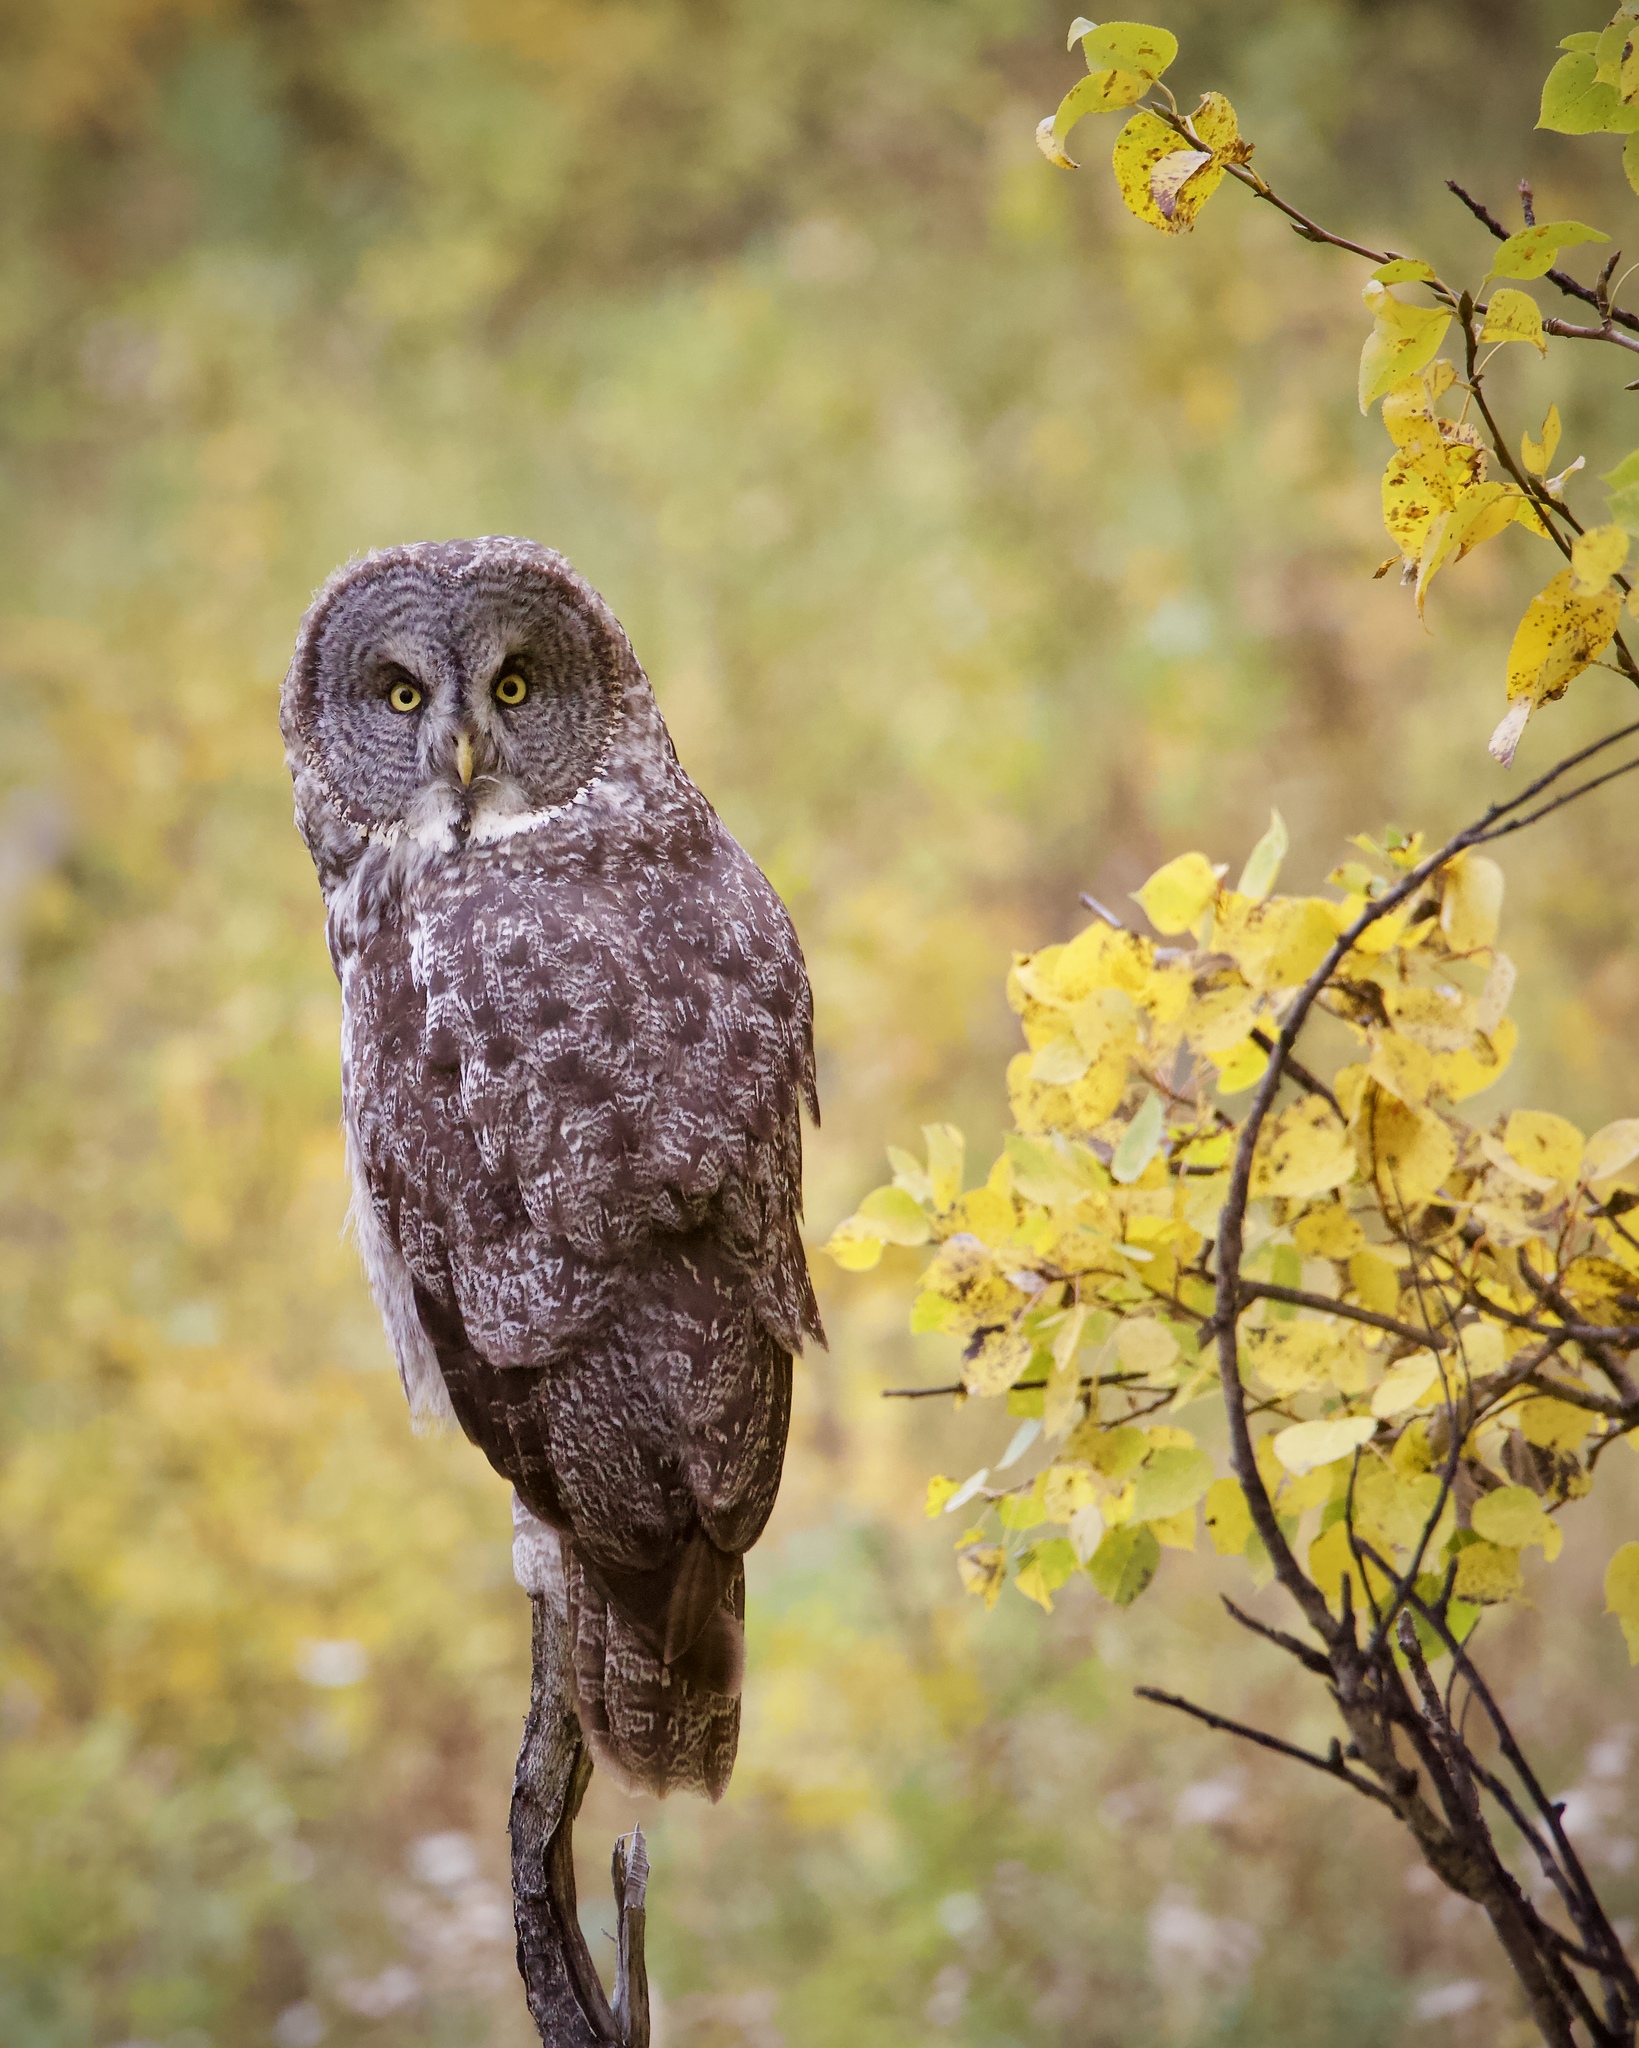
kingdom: Animalia
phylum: Chordata
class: Aves
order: Strigiformes
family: Strigidae
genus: Strix
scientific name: Strix nebulosa
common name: Great grey owl
